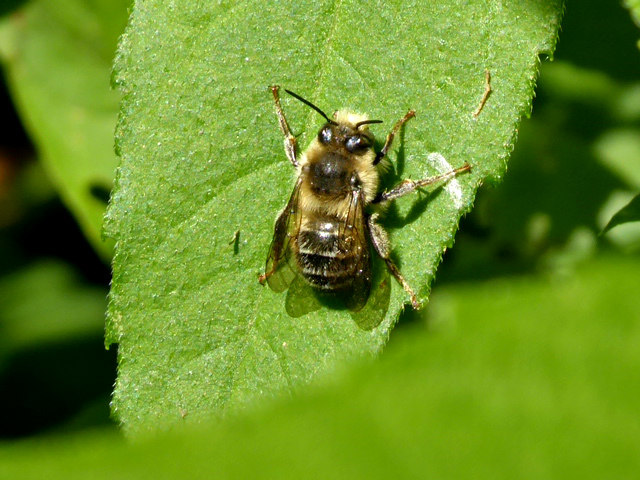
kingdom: Animalia
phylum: Arthropoda
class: Insecta
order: Hymenoptera
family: Apidae
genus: Anthophora
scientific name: Anthophora terminalis
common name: Orange-tipped wood-digger bee
